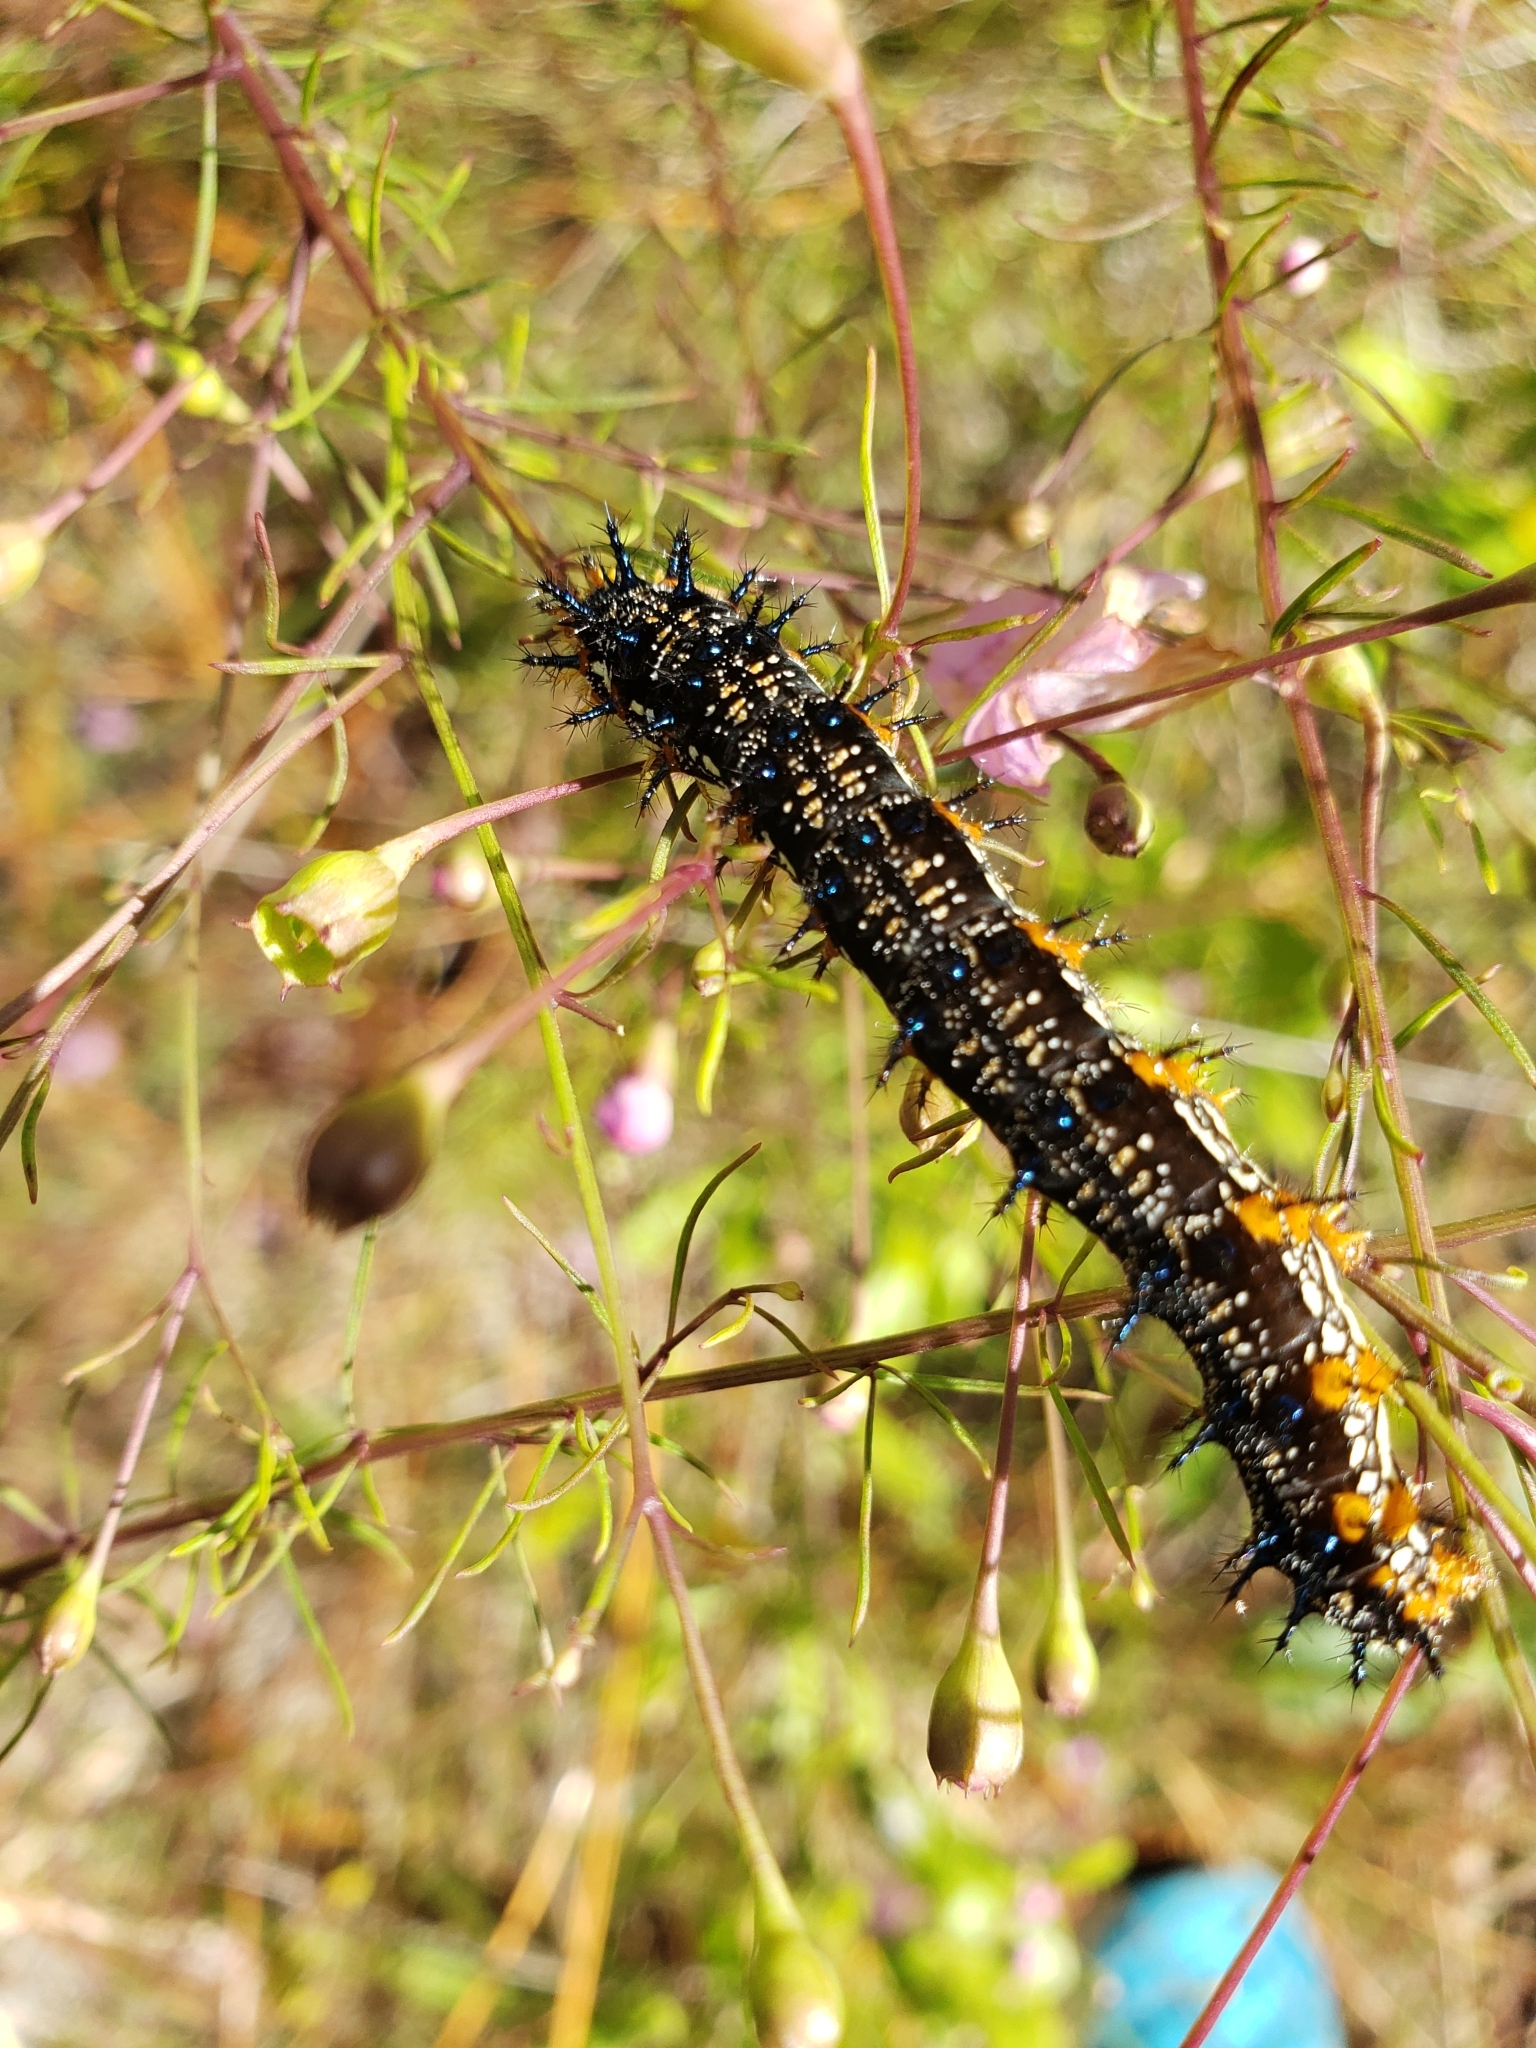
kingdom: Animalia
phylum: Arthropoda
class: Insecta
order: Lepidoptera
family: Nymphalidae
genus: Junonia
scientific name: Junonia coenia
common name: Common buckeye
